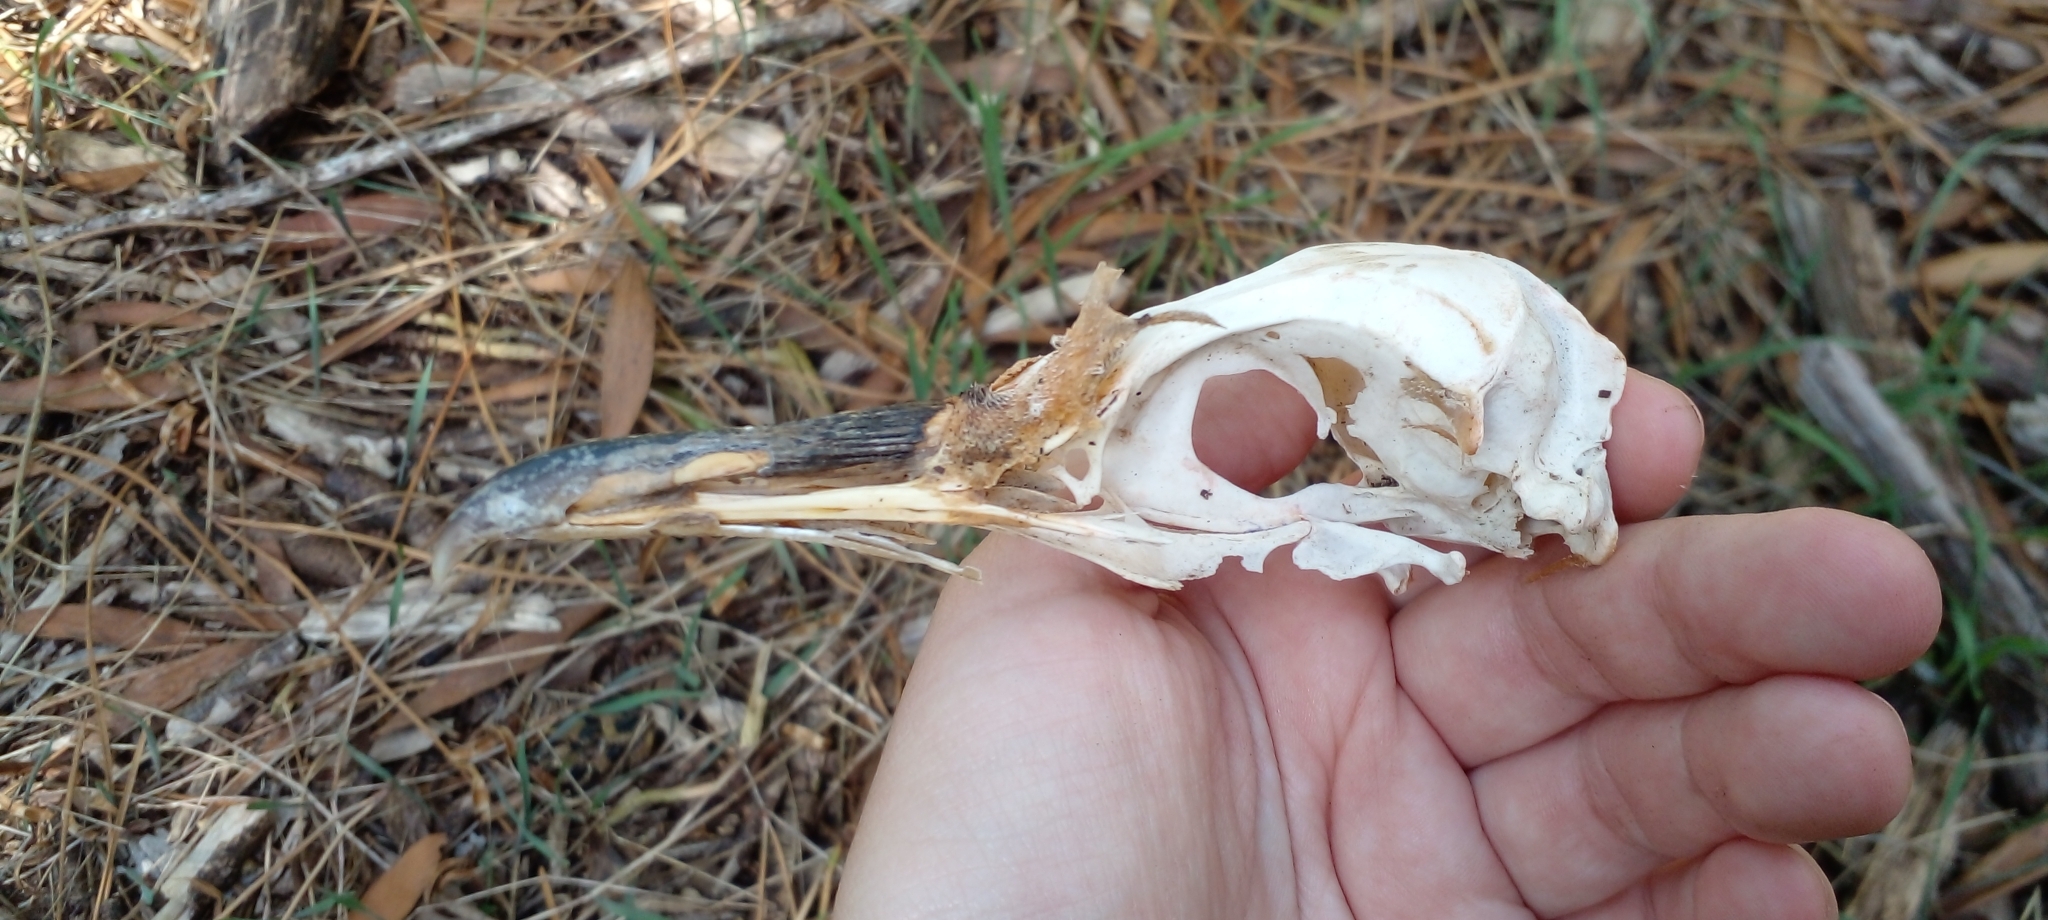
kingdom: Animalia
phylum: Chordata
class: Aves
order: Sphenisciformes
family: Spheniscidae
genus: Spheniscus
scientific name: Spheniscus magellanicus
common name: Magellanic penguin
